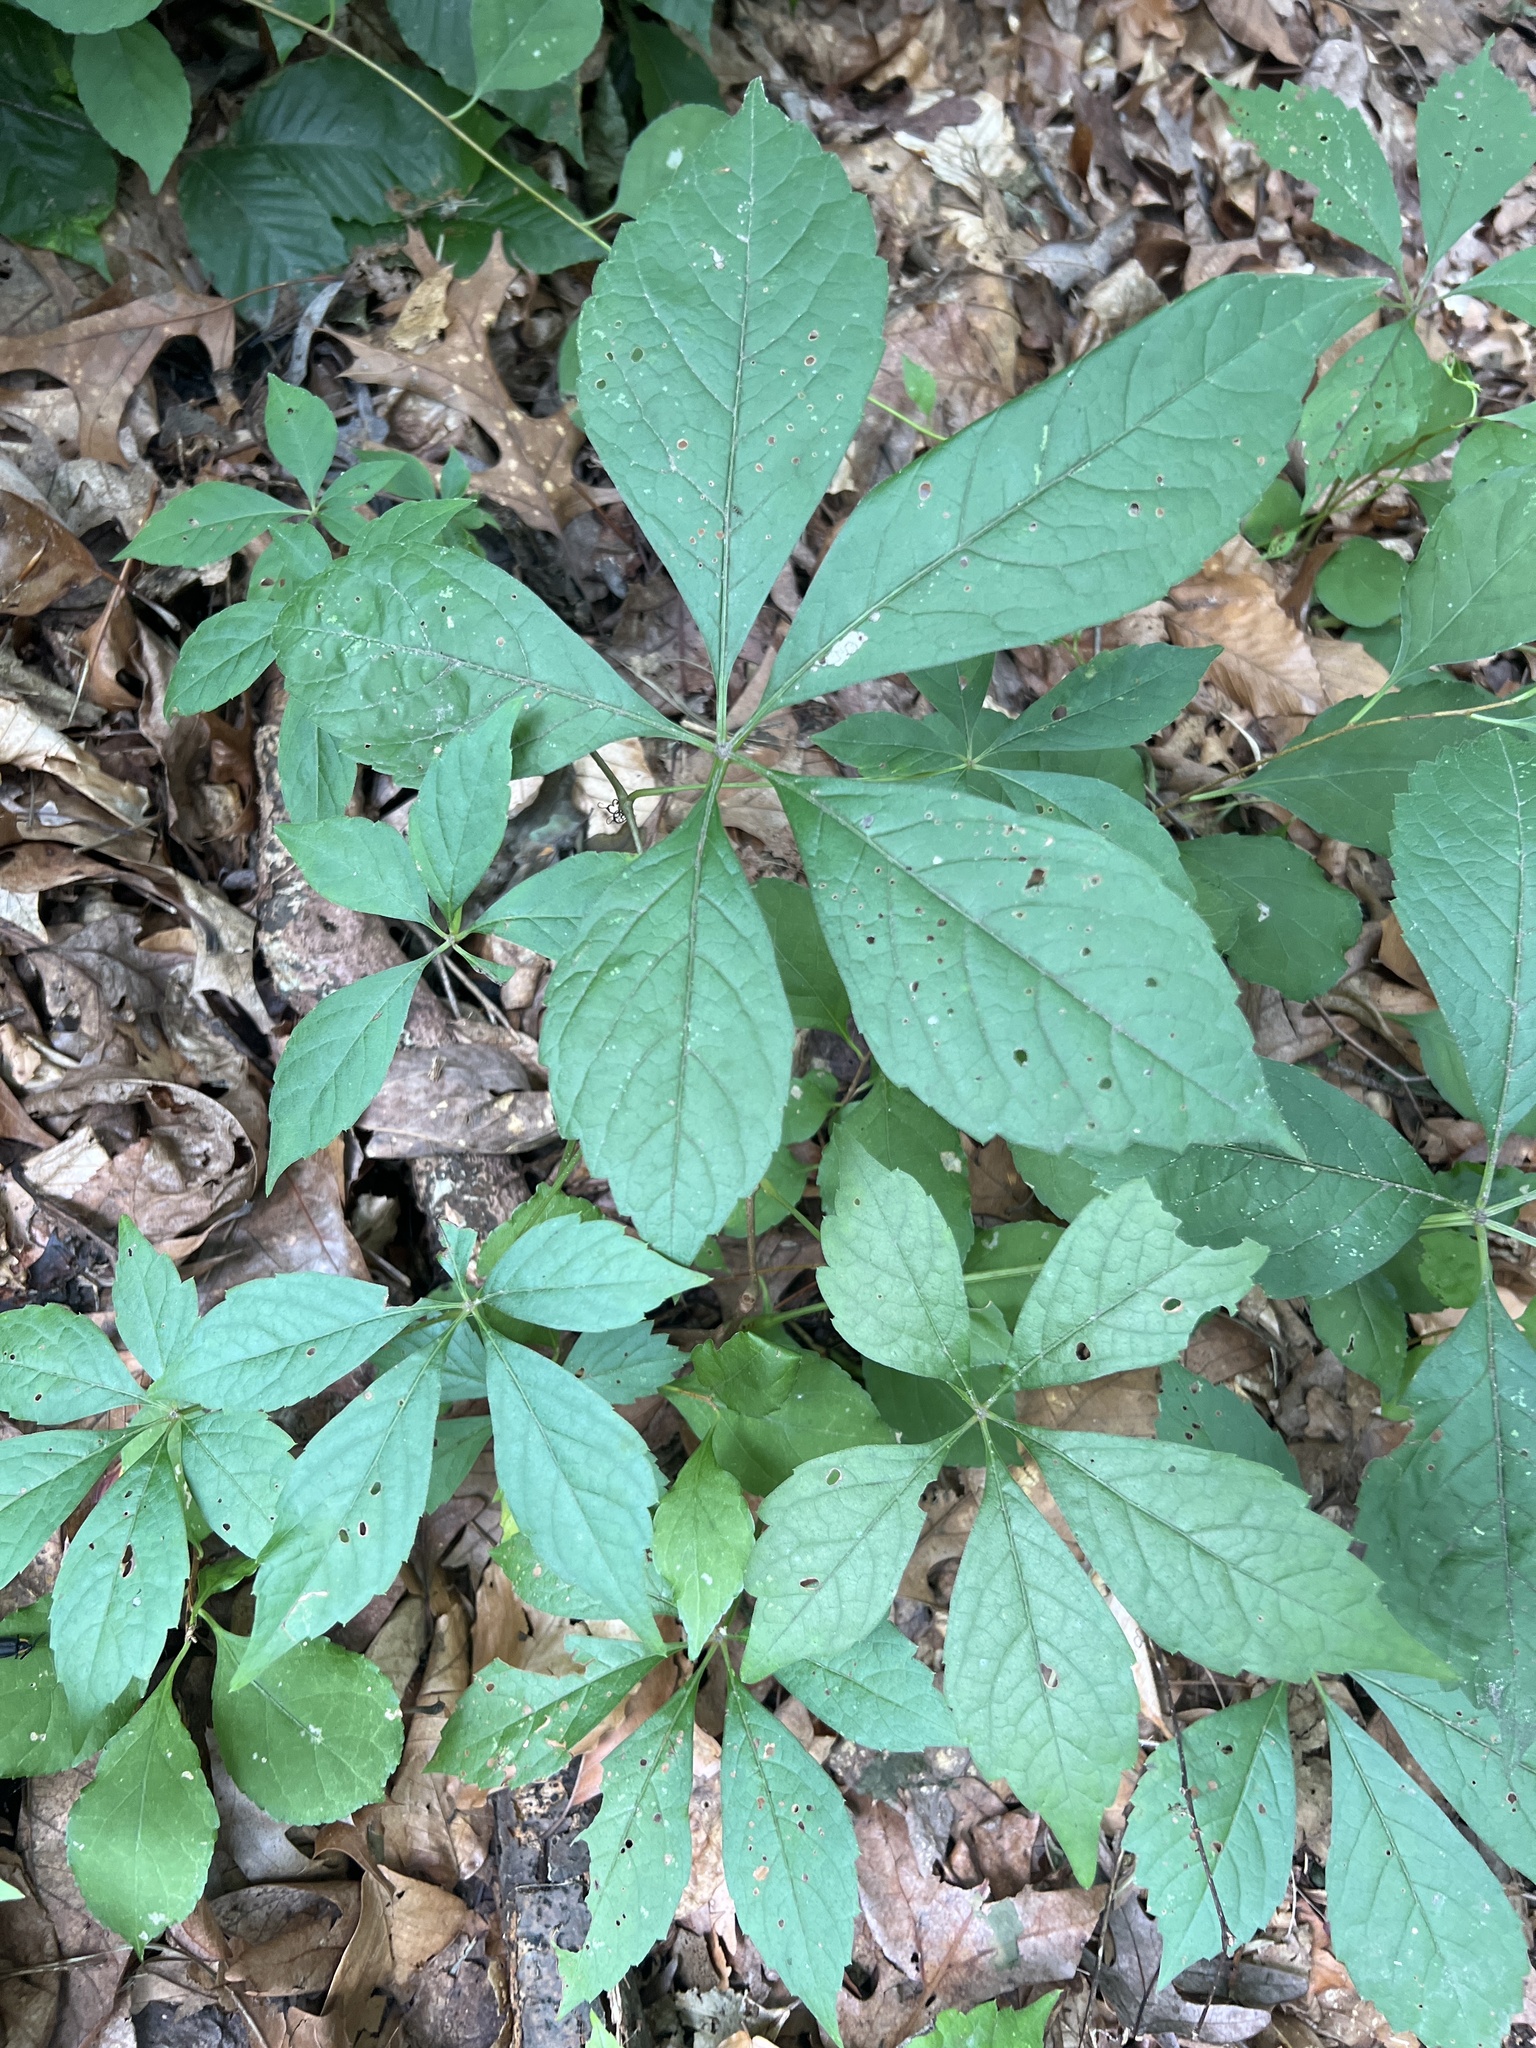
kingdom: Plantae
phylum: Tracheophyta
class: Magnoliopsida
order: Vitales
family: Vitaceae
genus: Parthenocissus
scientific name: Parthenocissus quinquefolia
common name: Virginia-creeper
